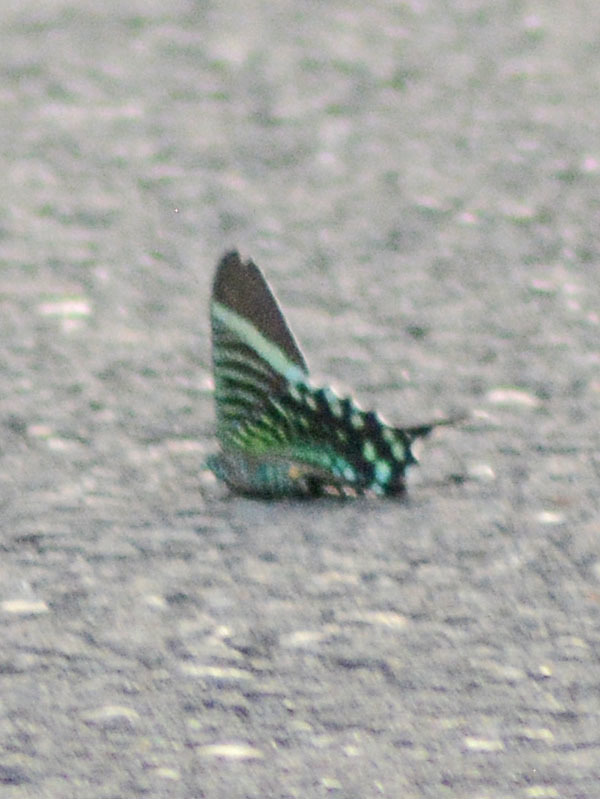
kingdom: Animalia
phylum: Arthropoda
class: Insecta
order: Lepidoptera
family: Uraniidae
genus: Urania
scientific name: Urania fulgens
